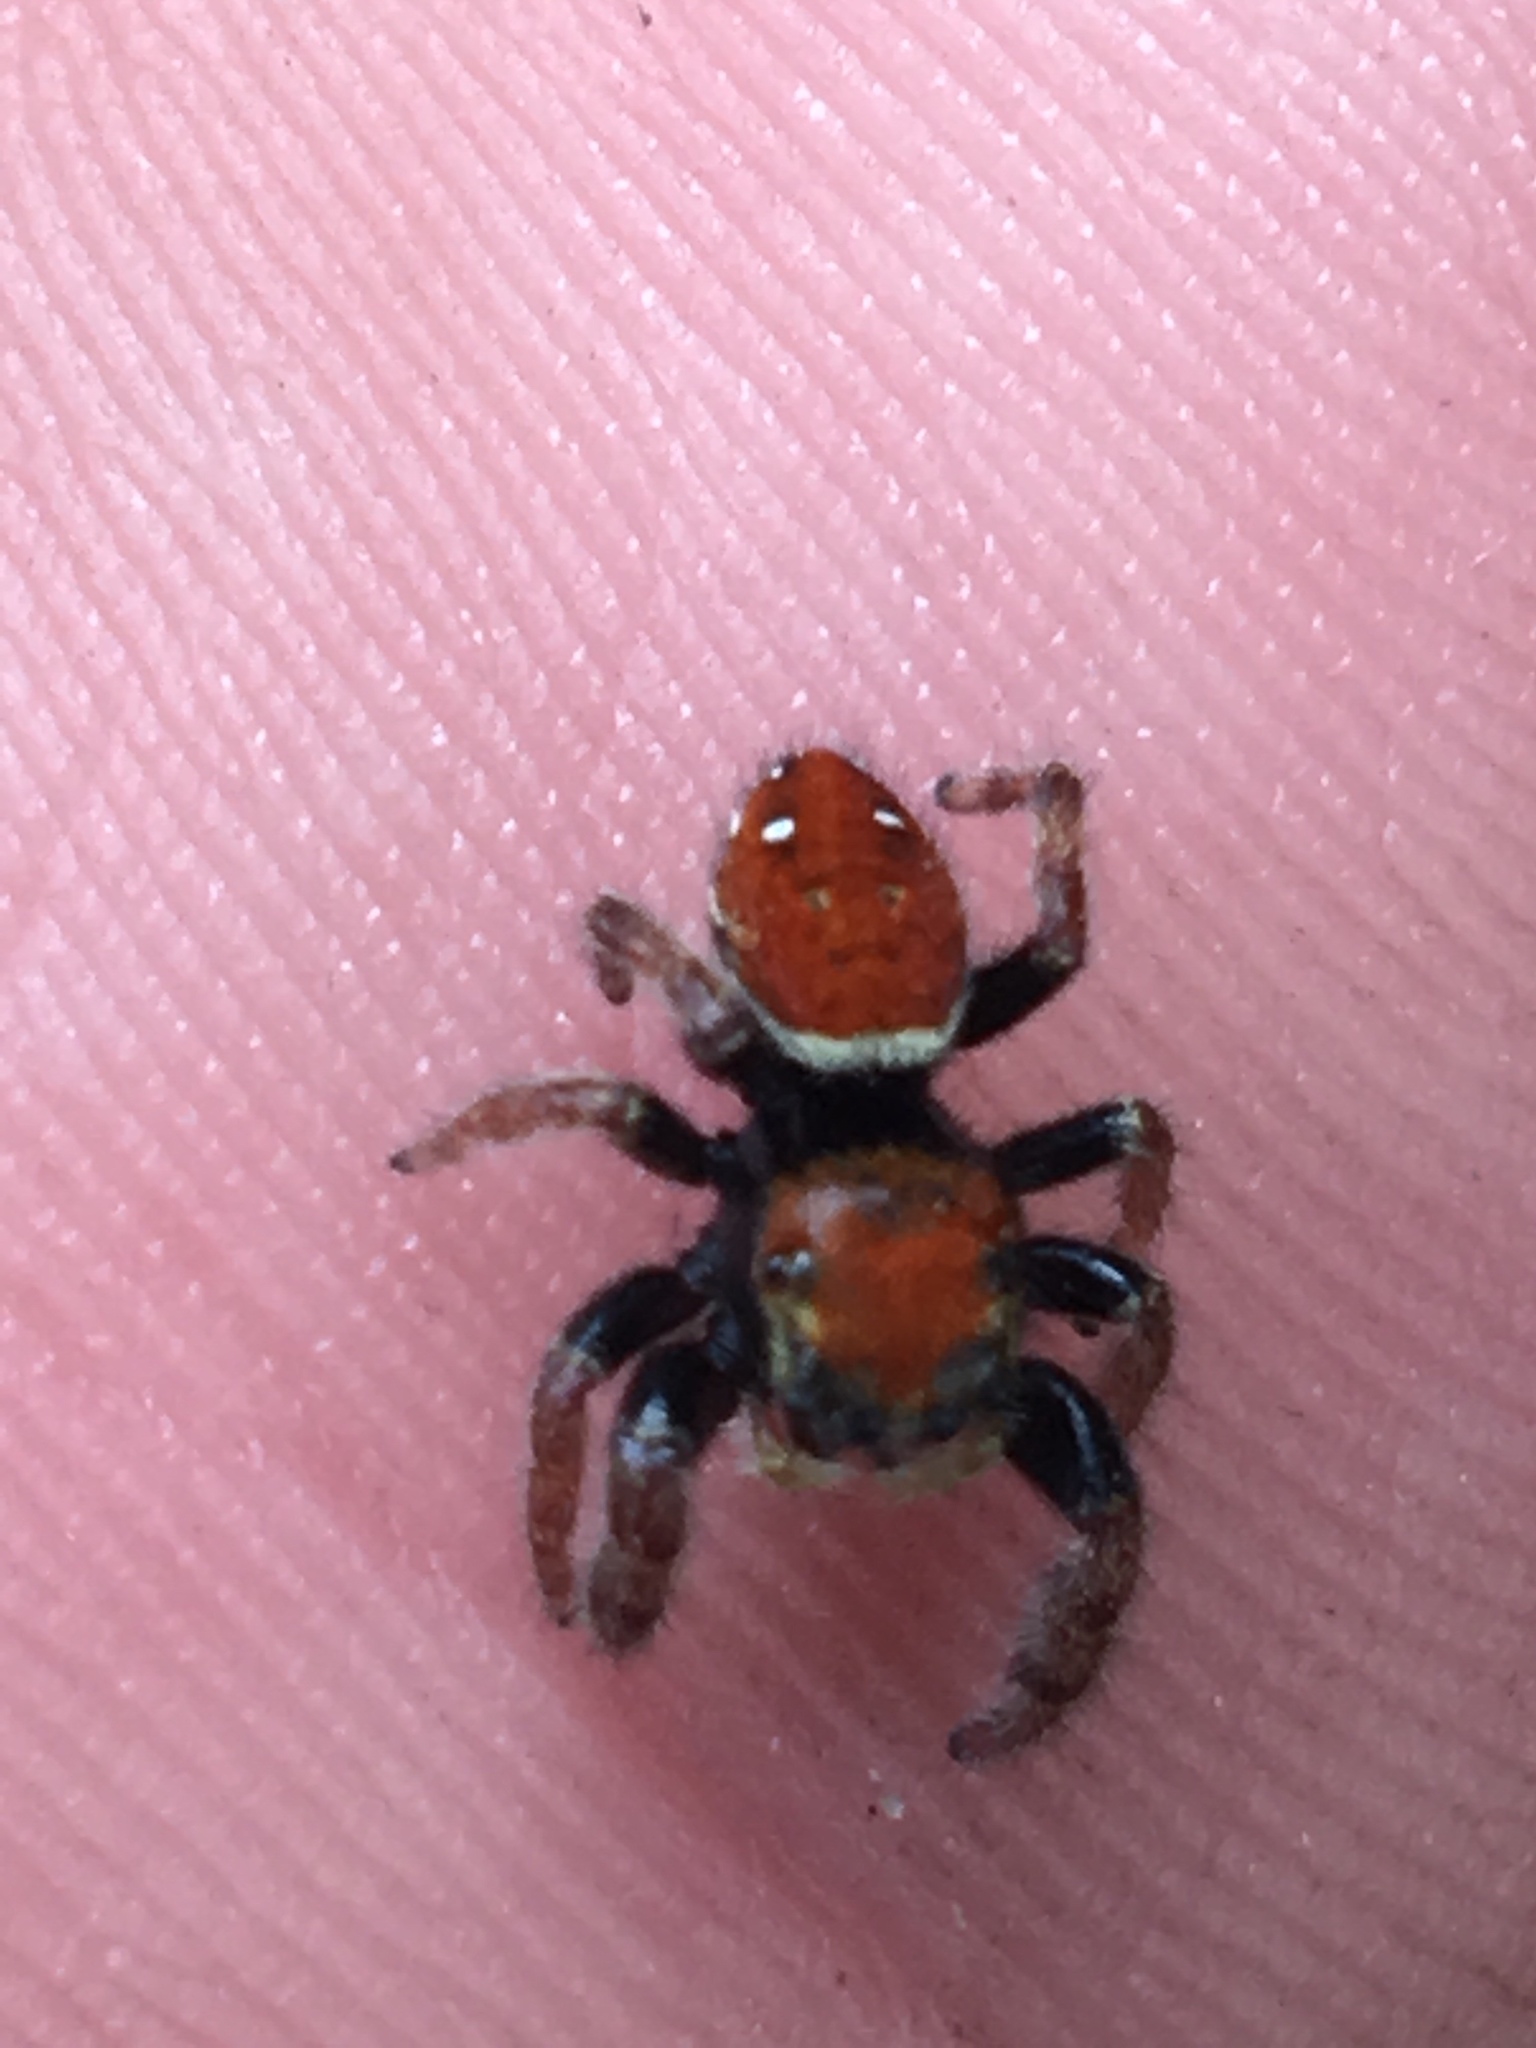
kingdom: Animalia
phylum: Arthropoda
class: Arachnida
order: Araneae
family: Salticidae
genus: Phidippus
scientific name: Phidippus whitmani
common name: Whitman's jumping spider
